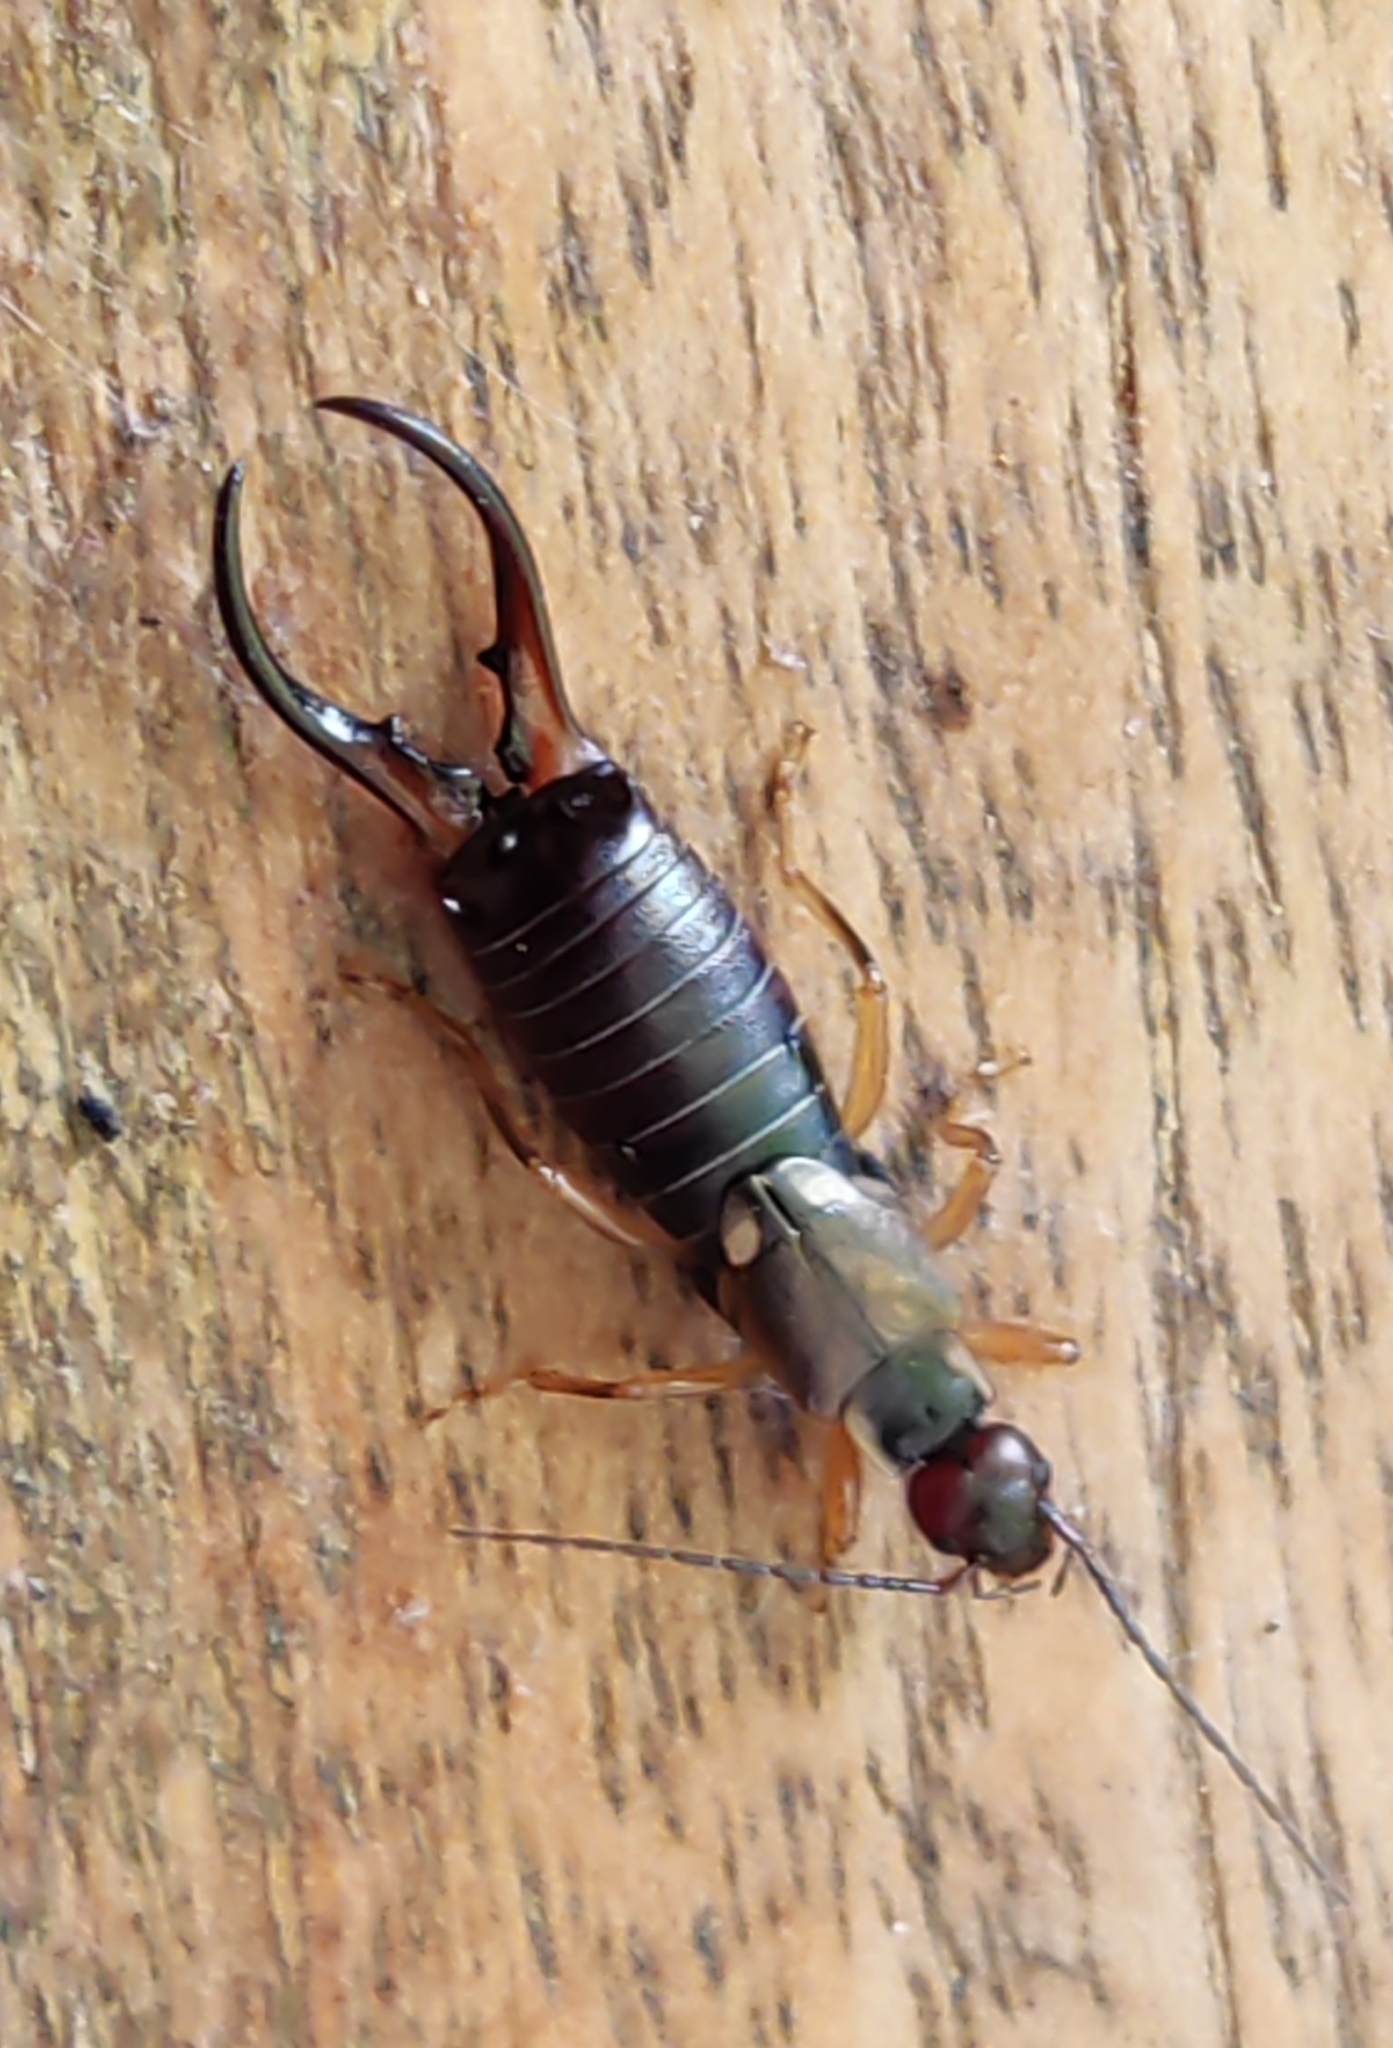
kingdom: Animalia
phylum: Arthropoda
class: Insecta
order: Dermaptera
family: Forficulidae
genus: Forficula
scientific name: Forficula
